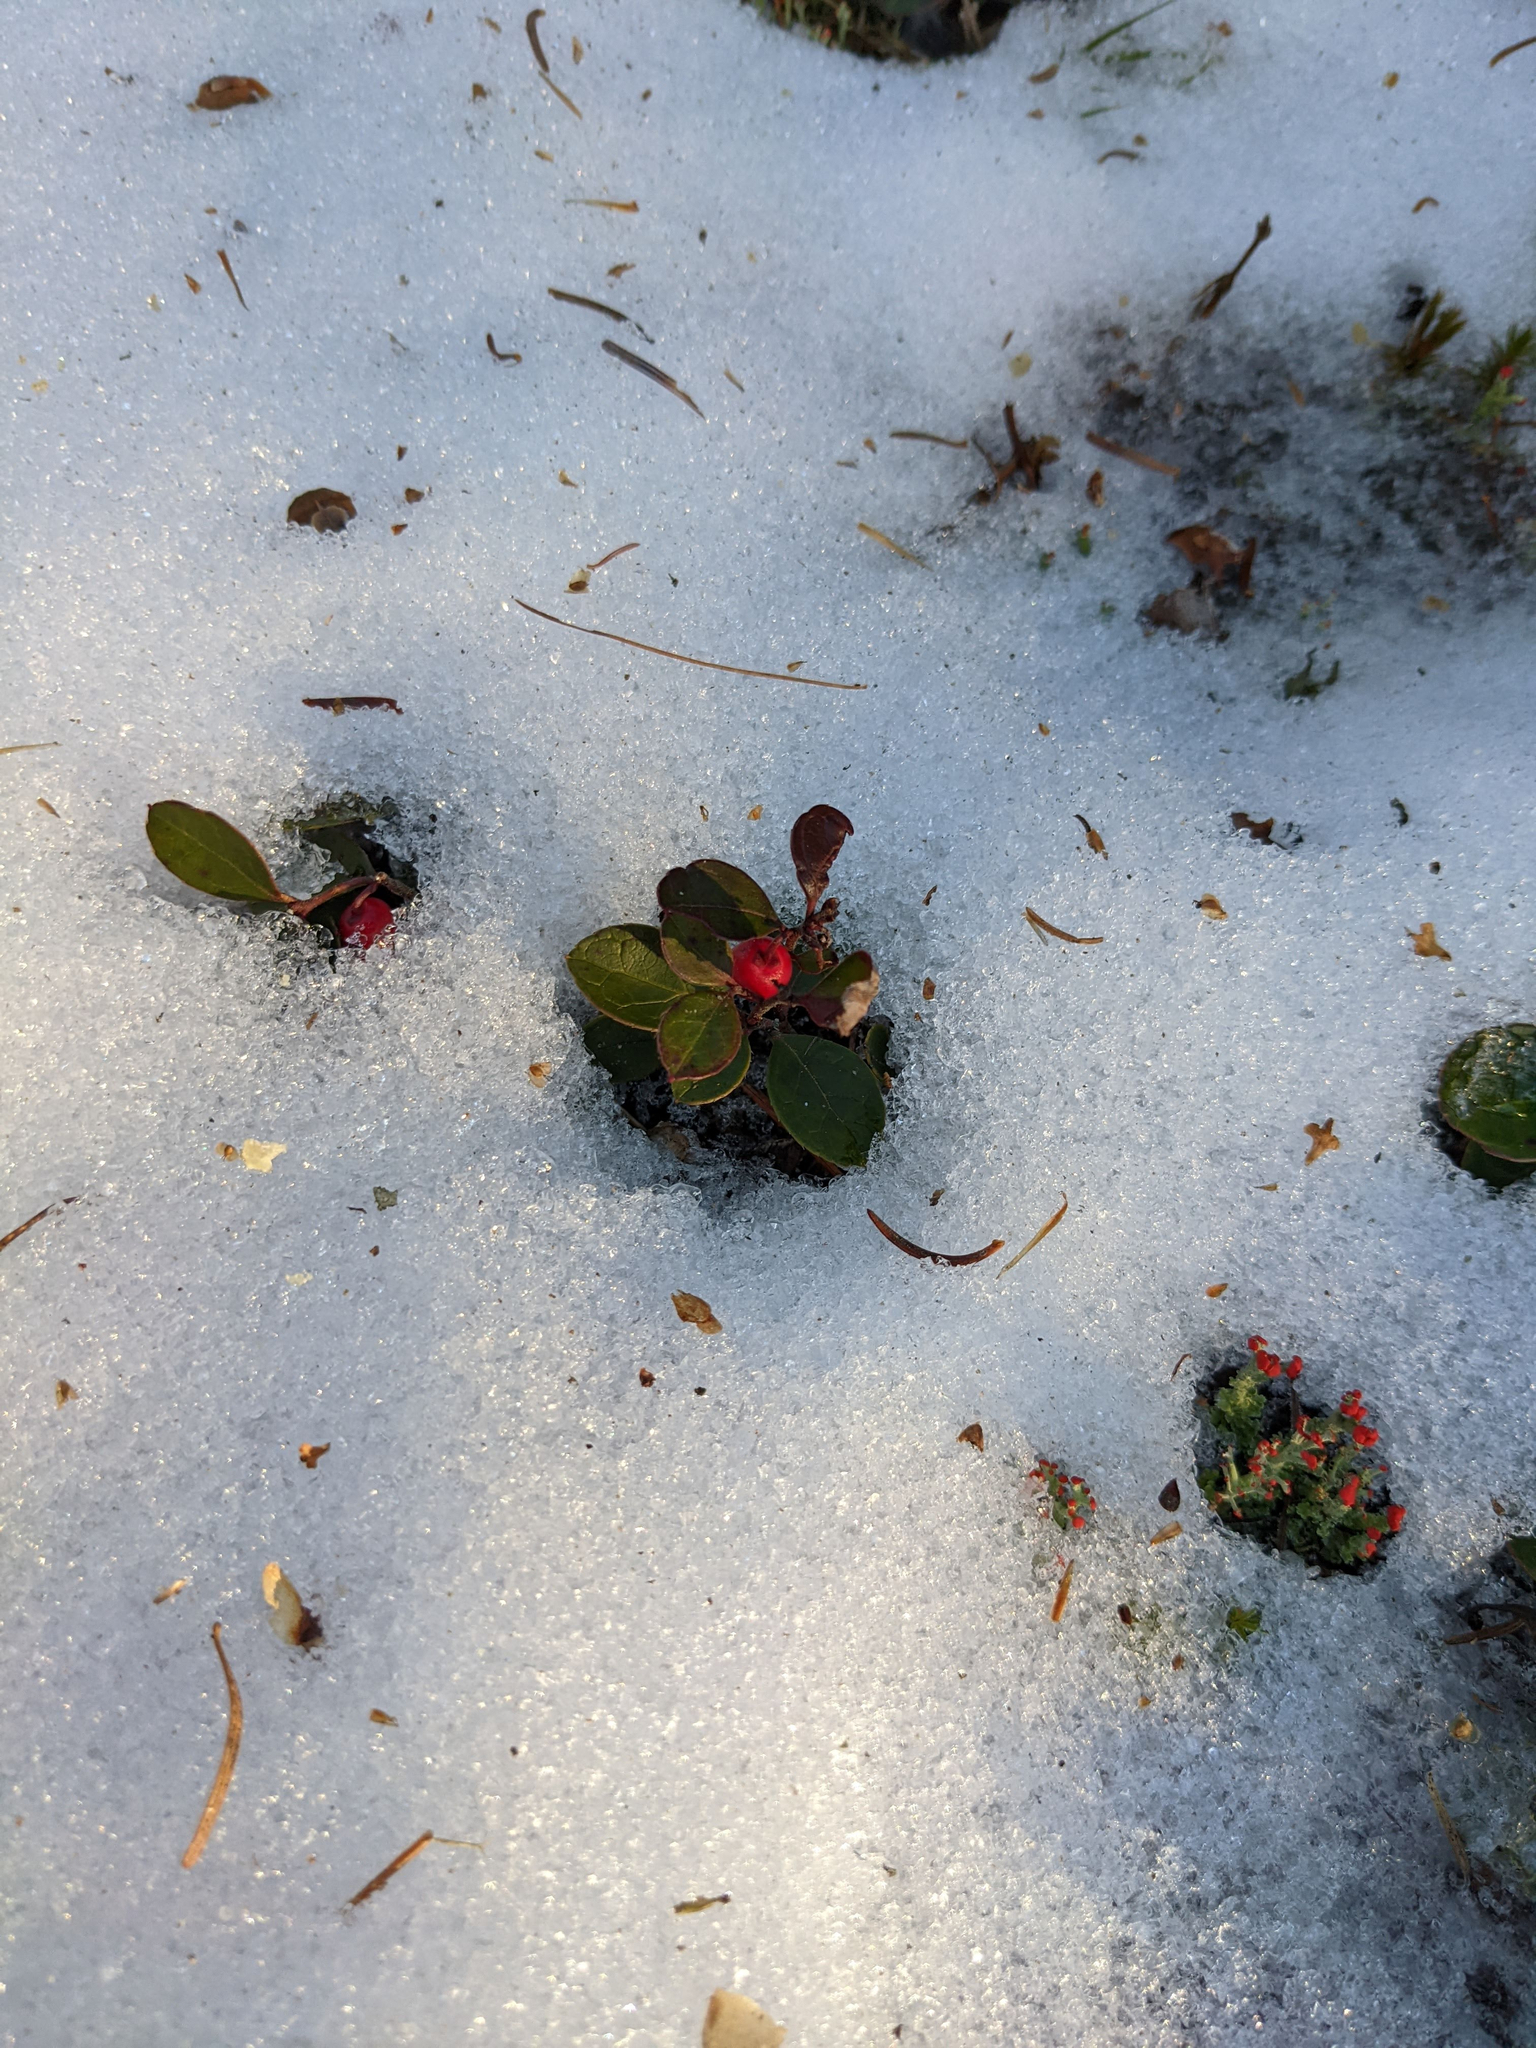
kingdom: Plantae
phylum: Tracheophyta
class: Magnoliopsida
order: Ericales
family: Ericaceae
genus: Gaultheria
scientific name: Gaultheria procumbens
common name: Checkerberry
